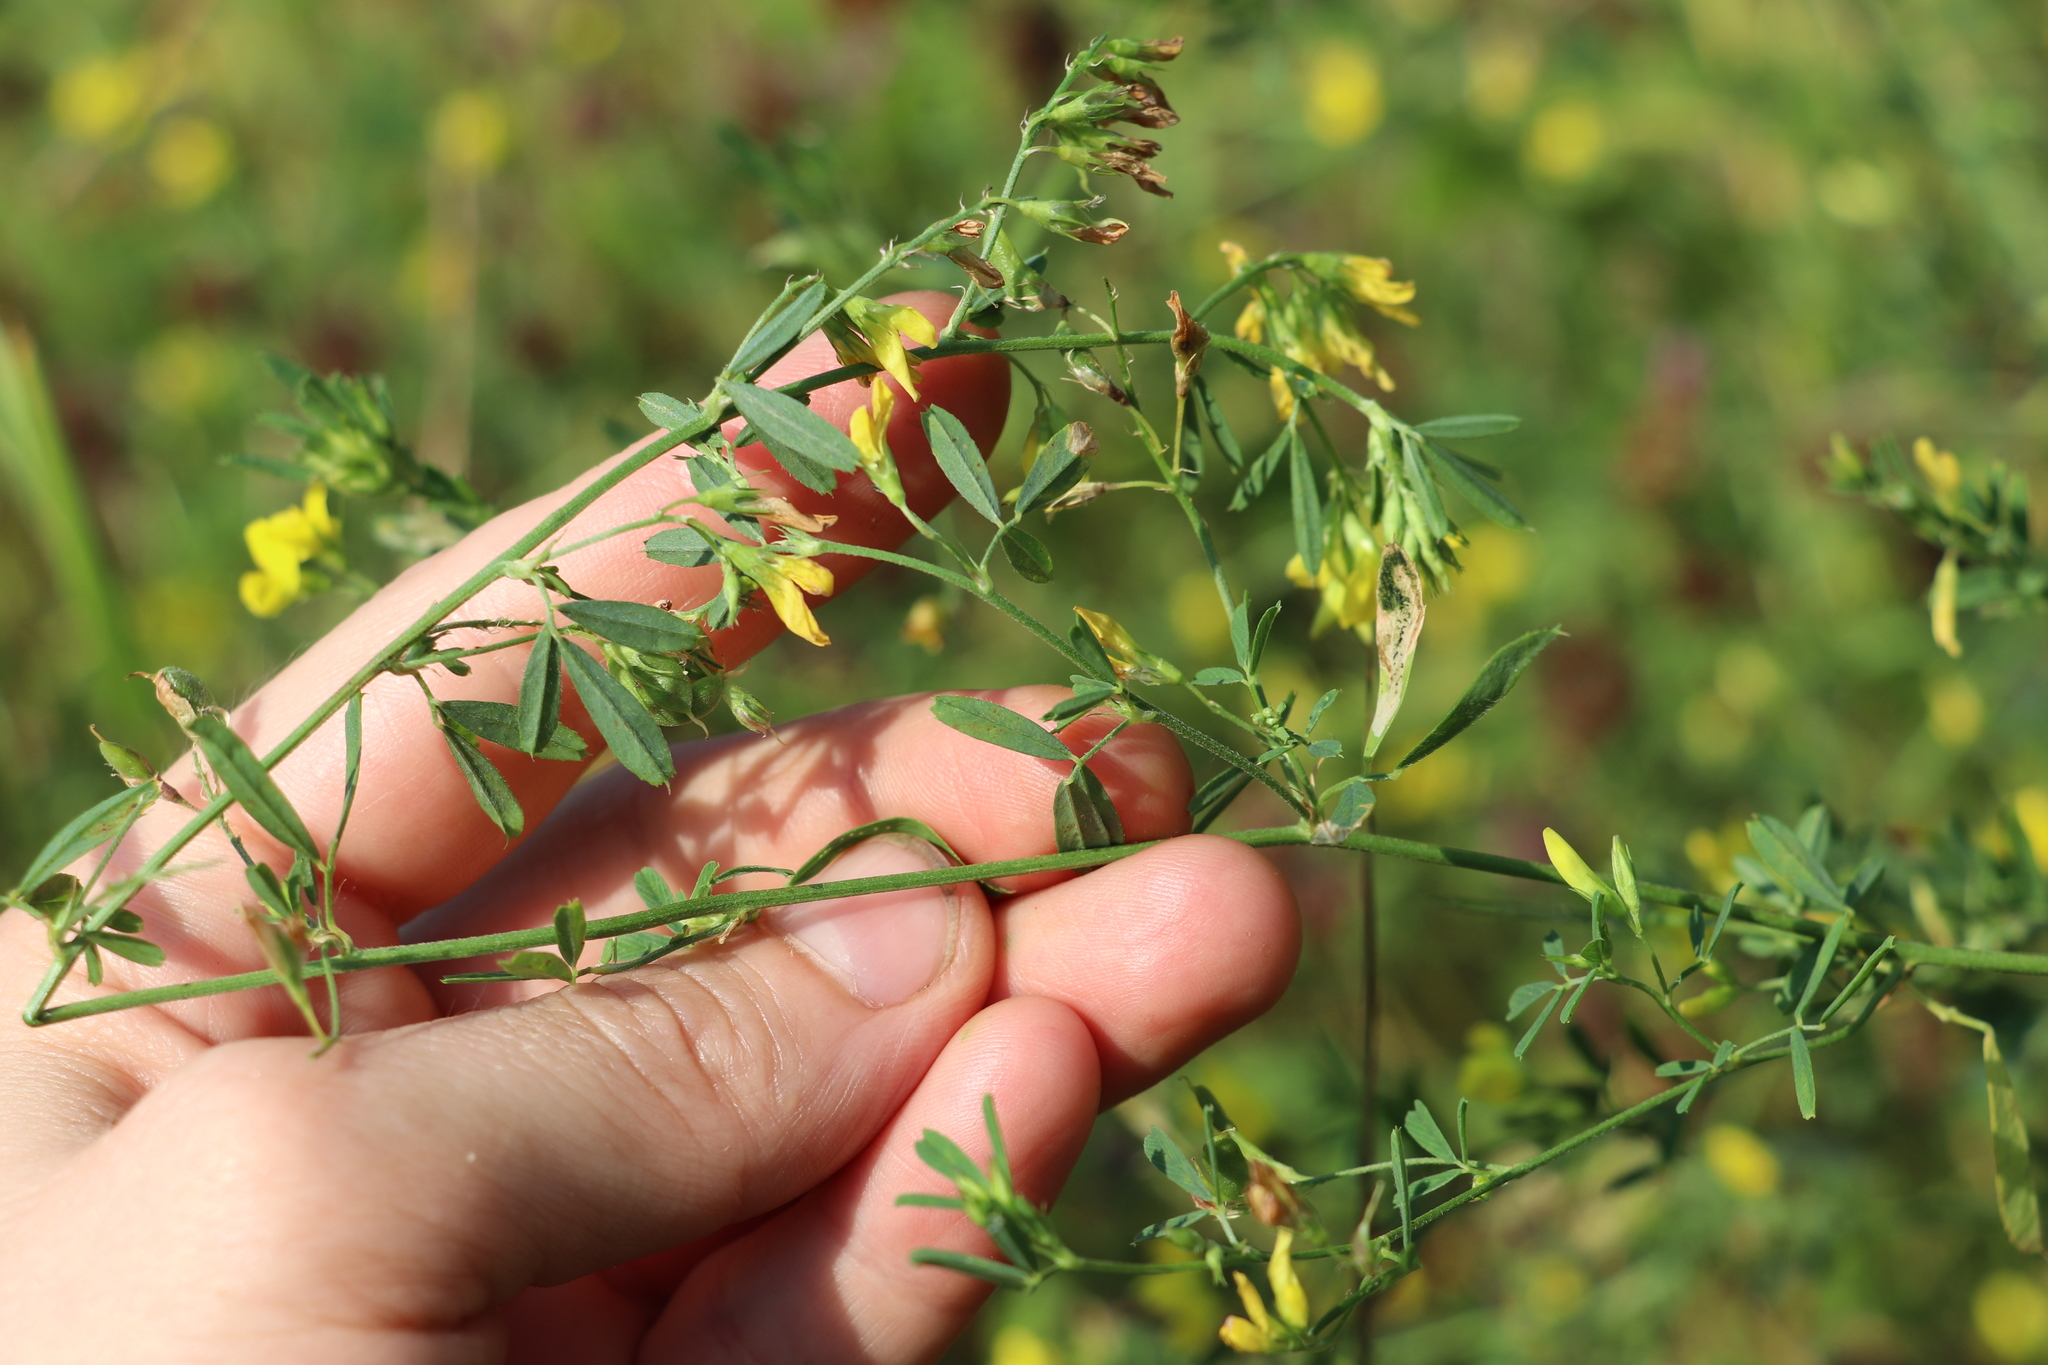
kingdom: Plantae
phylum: Tracheophyta
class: Magnoliopsida
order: Fabales
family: Fabaceae
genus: Medicago
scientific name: Medicago falcata
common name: Sickle medick
